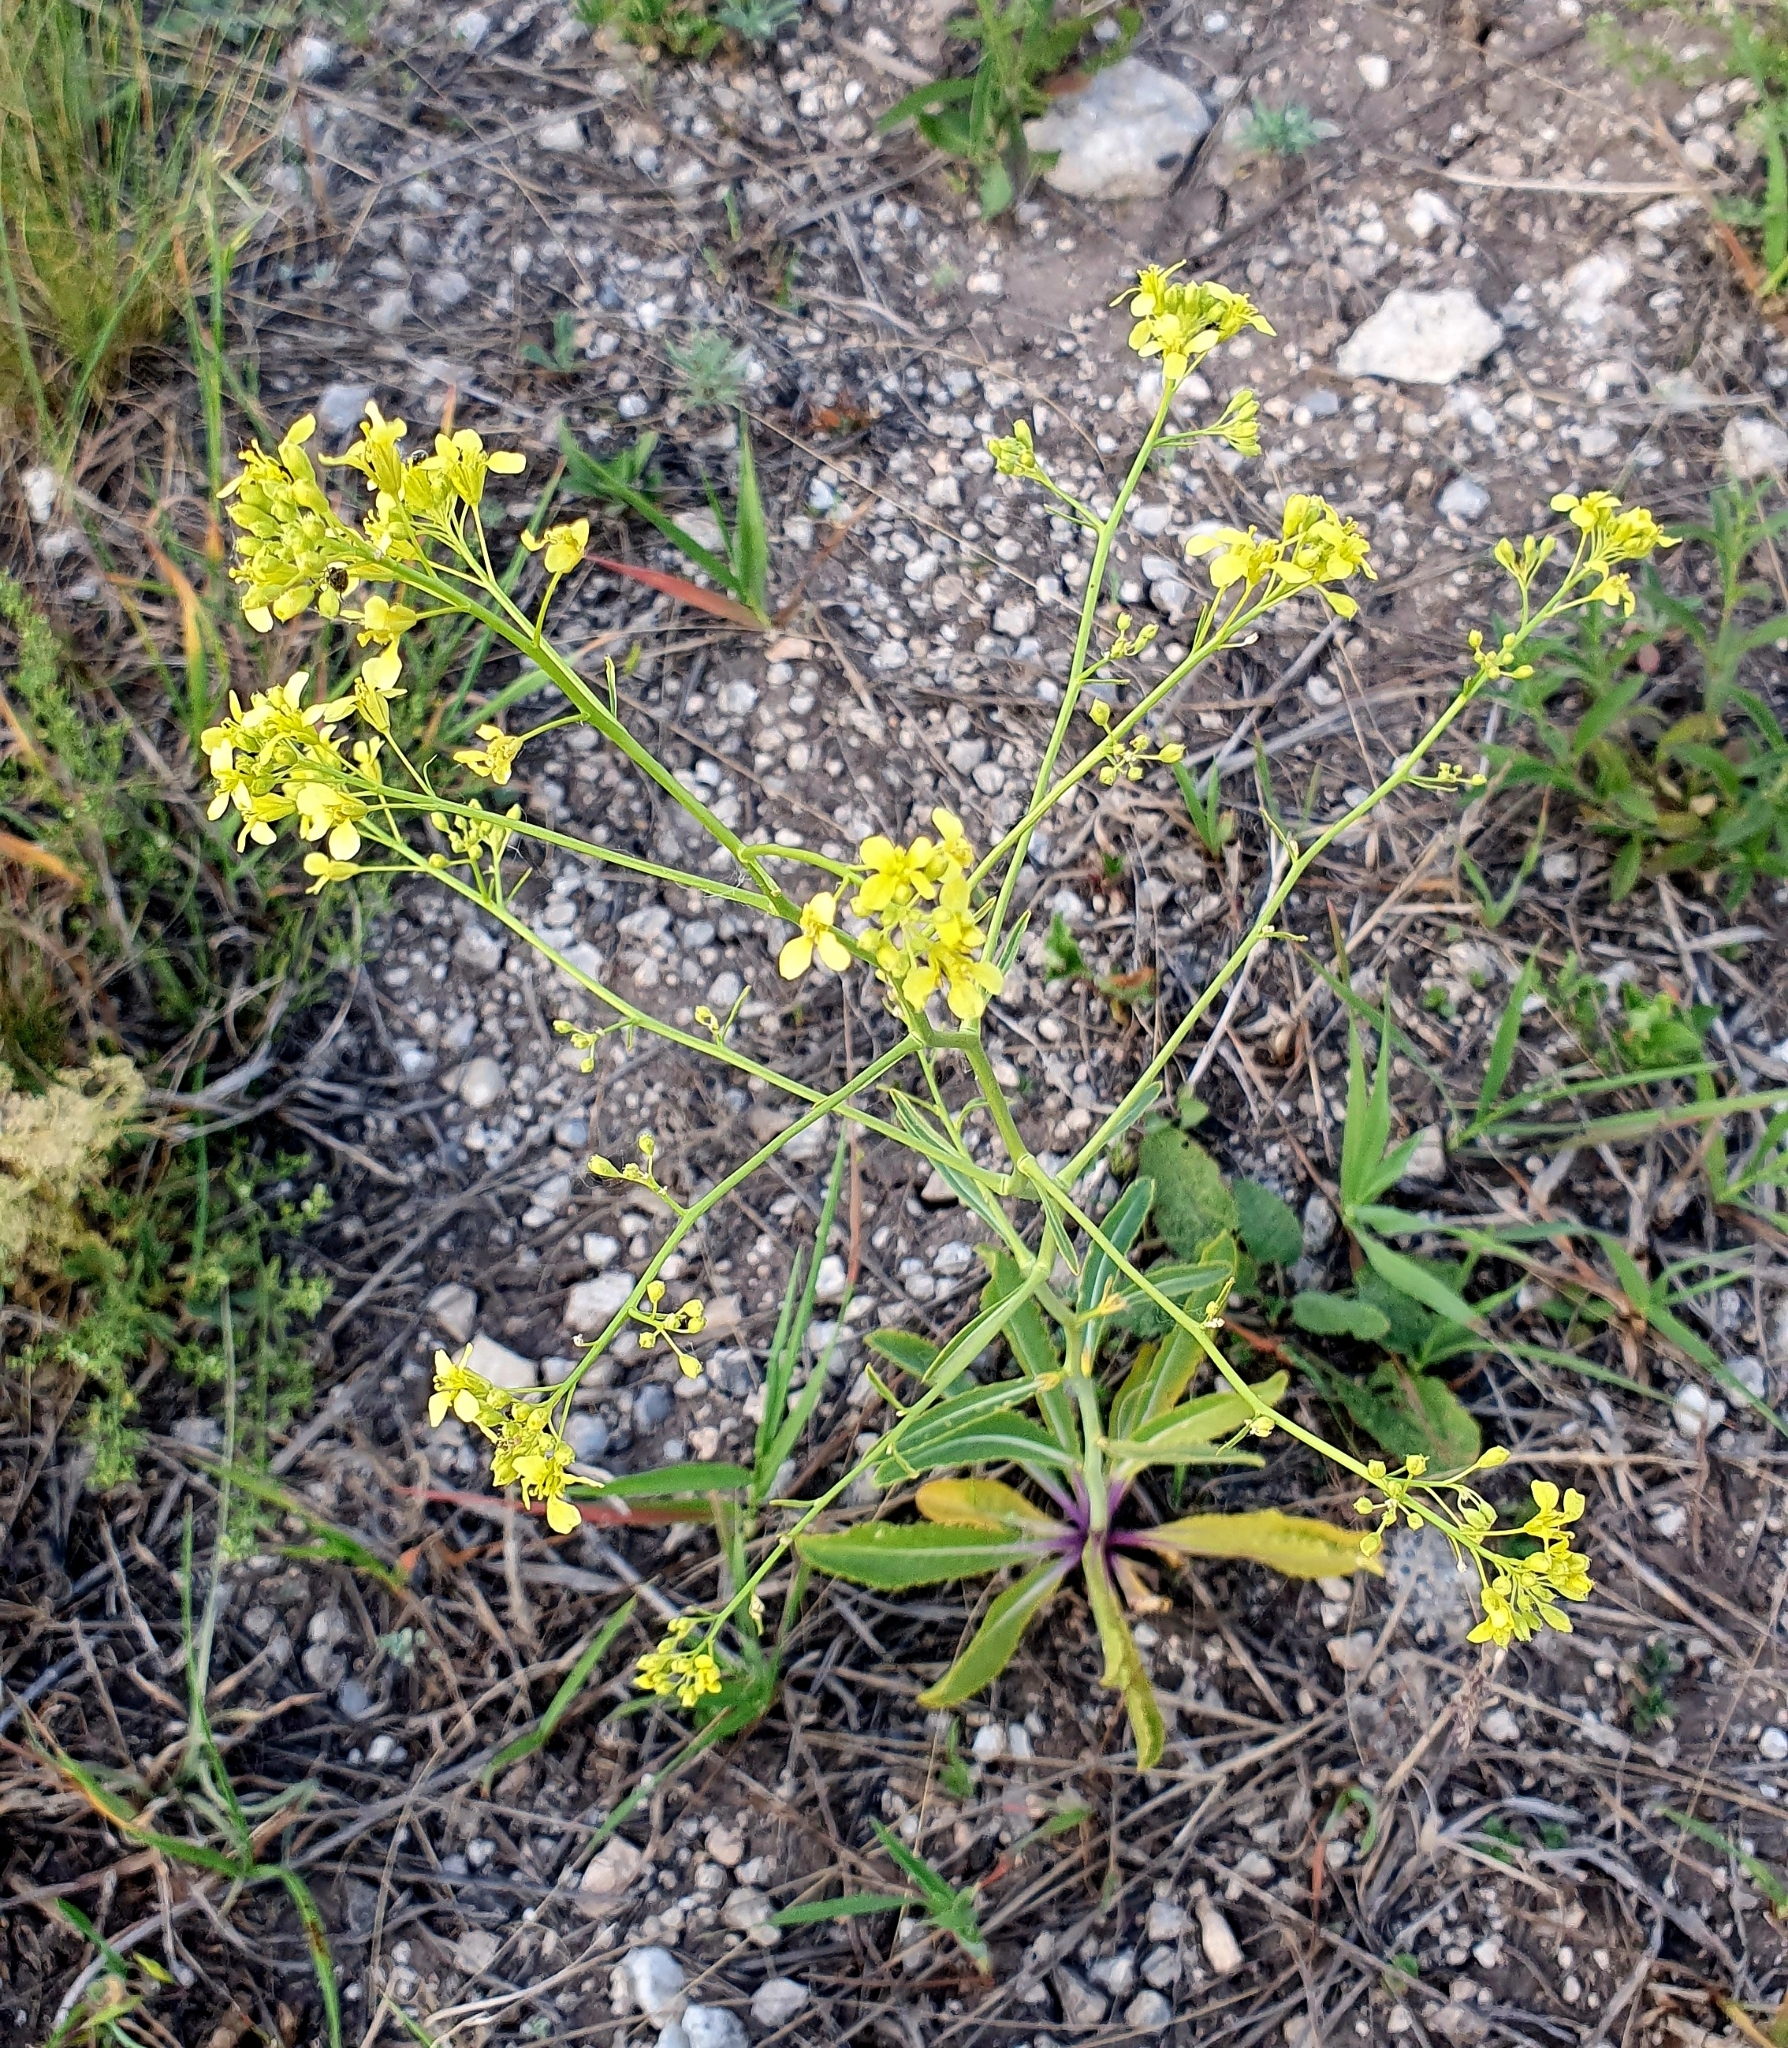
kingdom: Plantae
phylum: Tracheophyta
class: Magnoliopsida
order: Brassicales
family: Brassicaceae
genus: Brassica
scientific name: Brassica elongata
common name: Long-stalked rape
